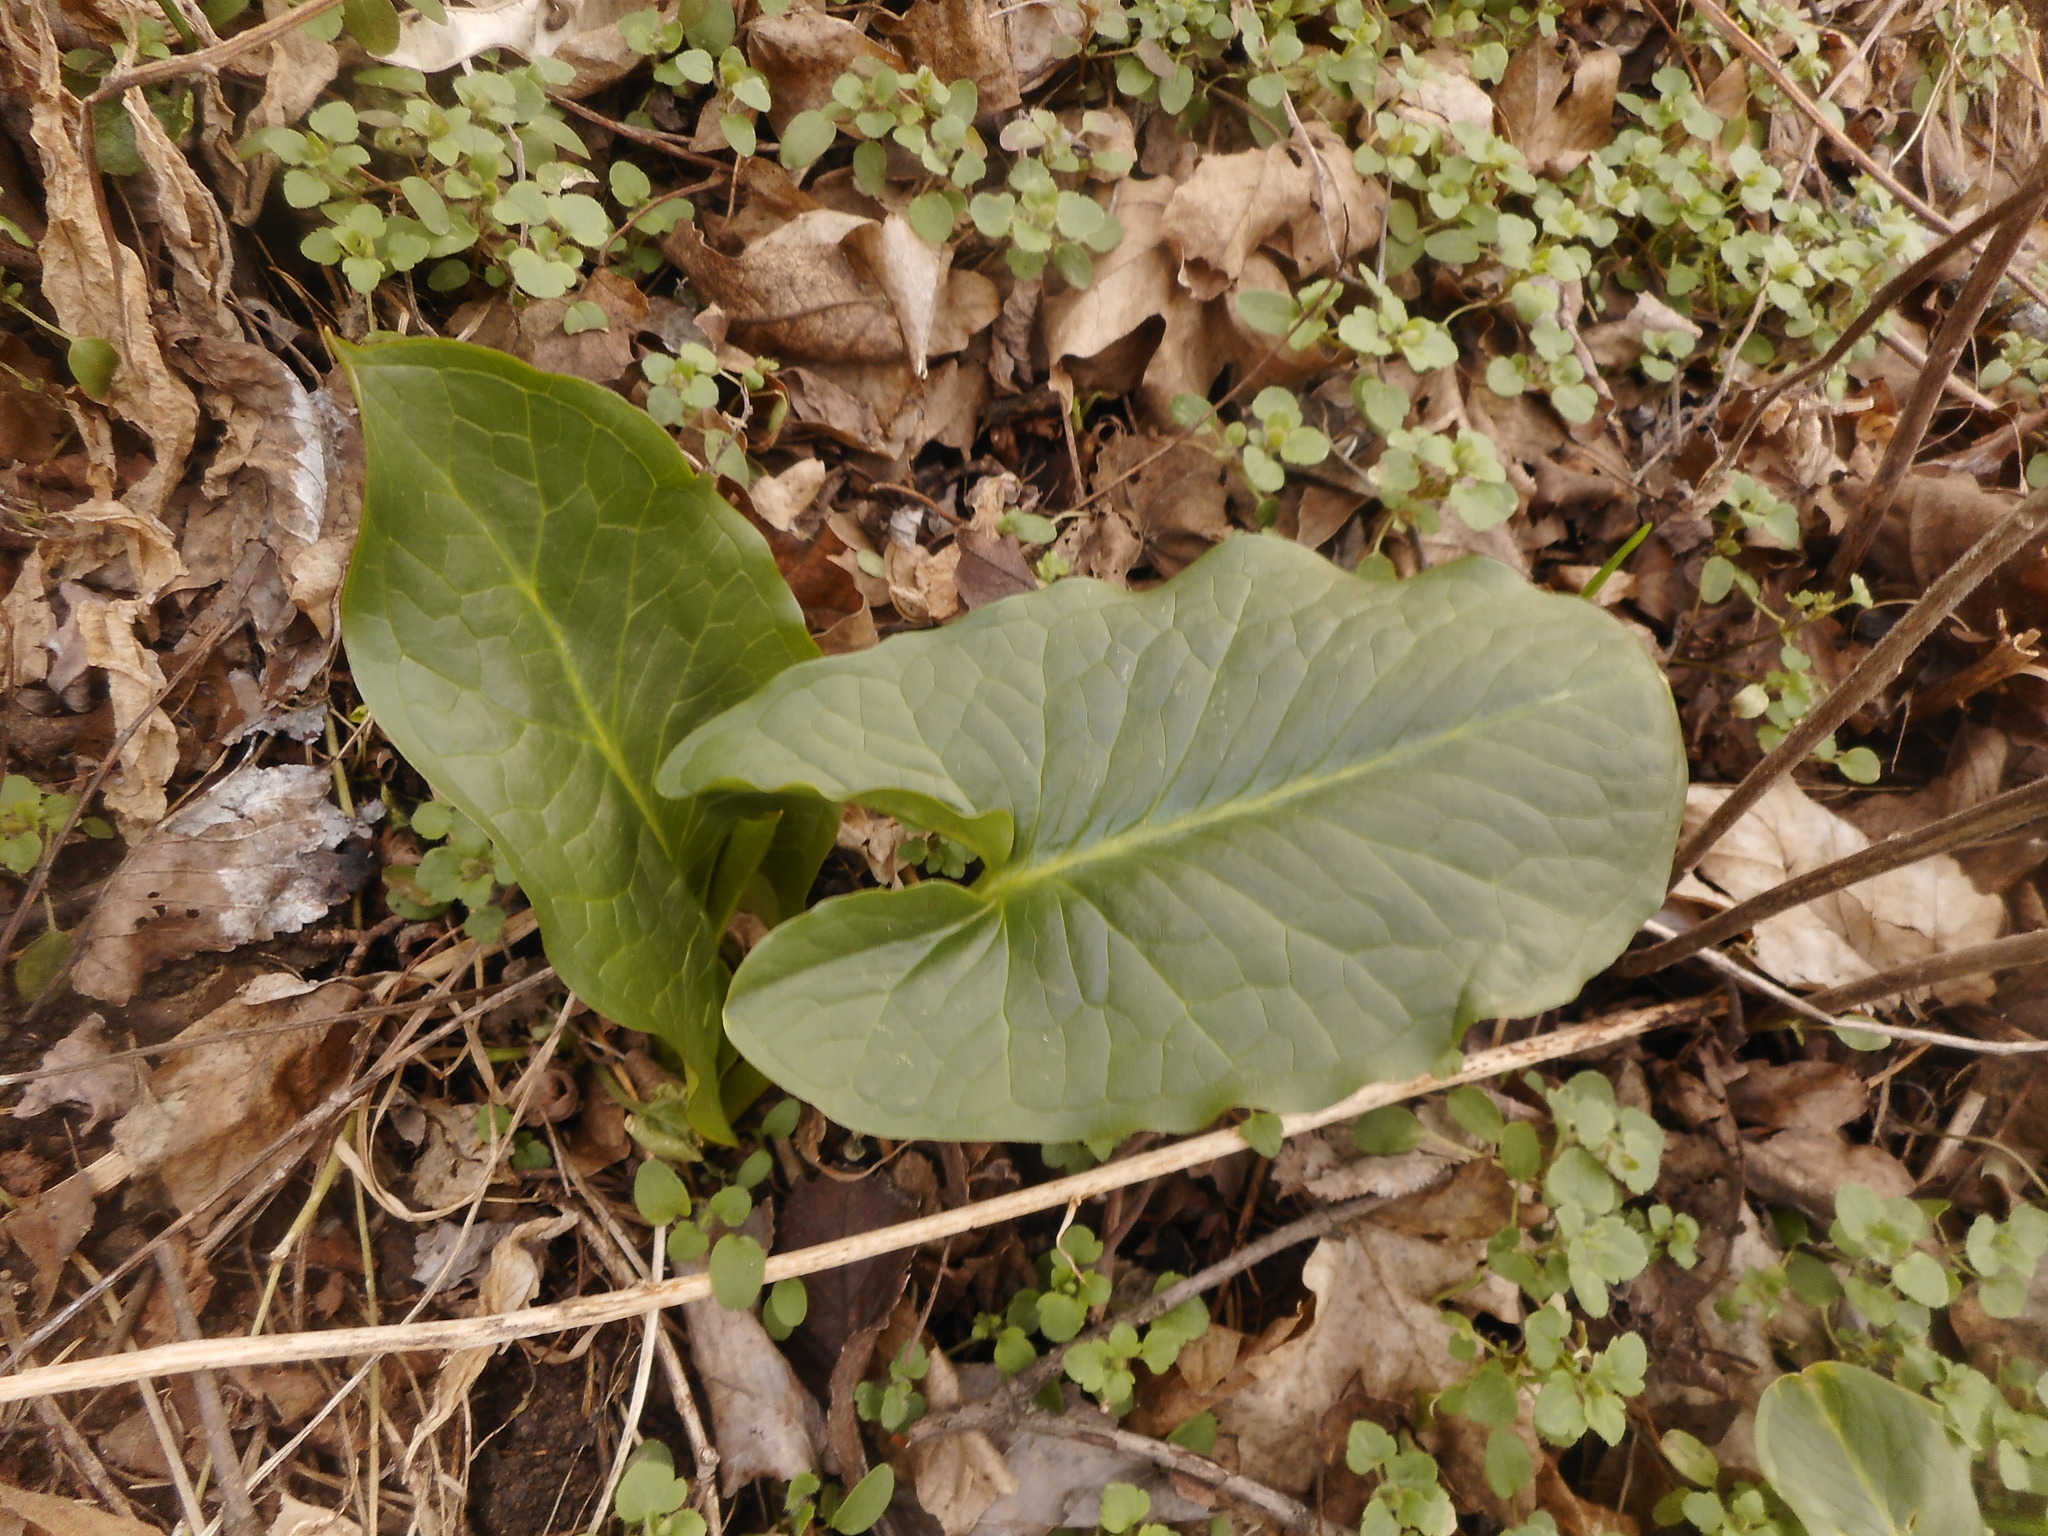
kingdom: Plantae
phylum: Tracheophyta
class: Liliopsida
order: Alismatales
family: Araceae
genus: Arum
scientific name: Arum cylindraceum
